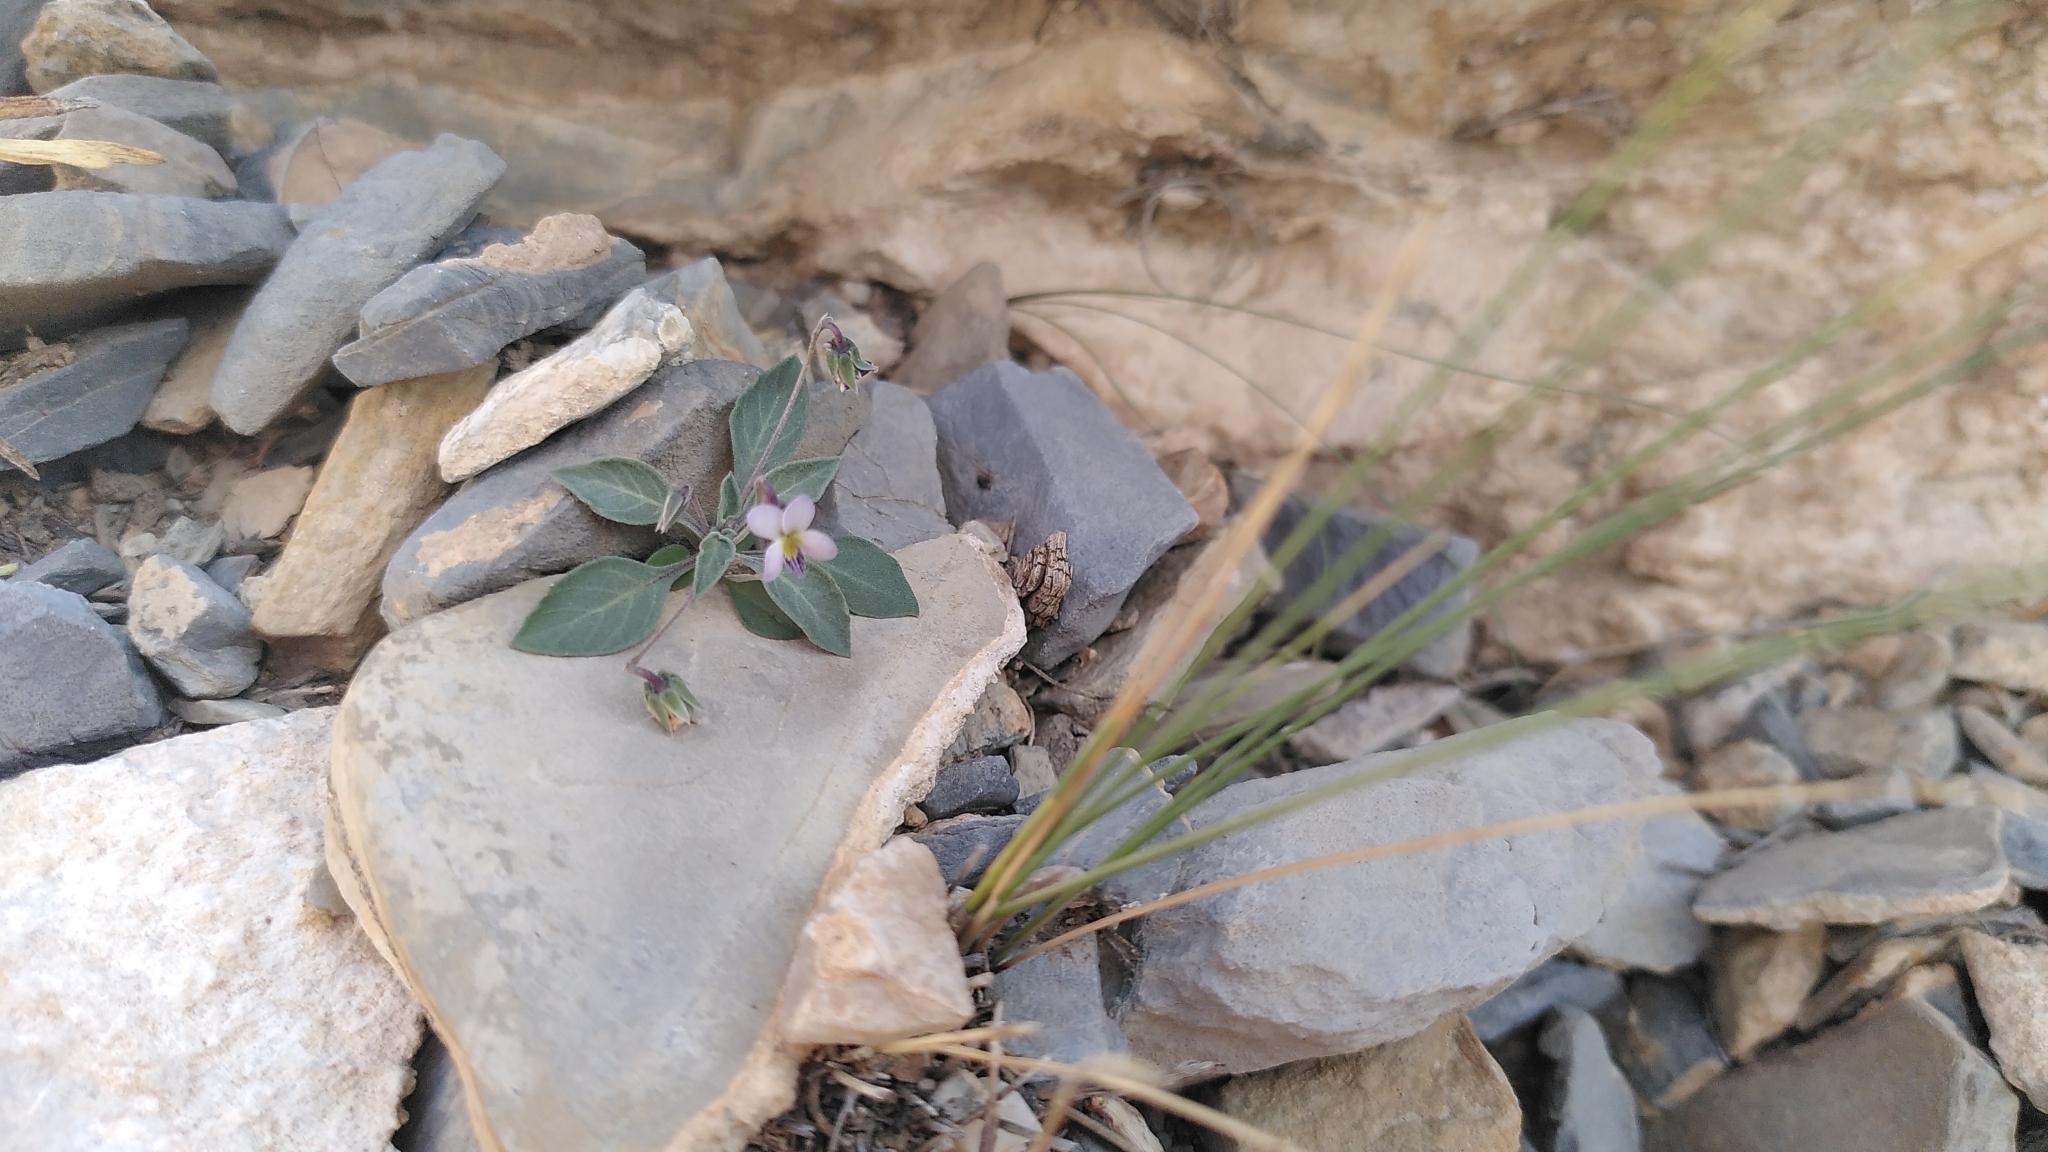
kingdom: Plantae
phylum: Tracheophyta
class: Magnoliopsida
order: Malpighiales
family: Violaceae
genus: Viola
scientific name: Viola cinerea
